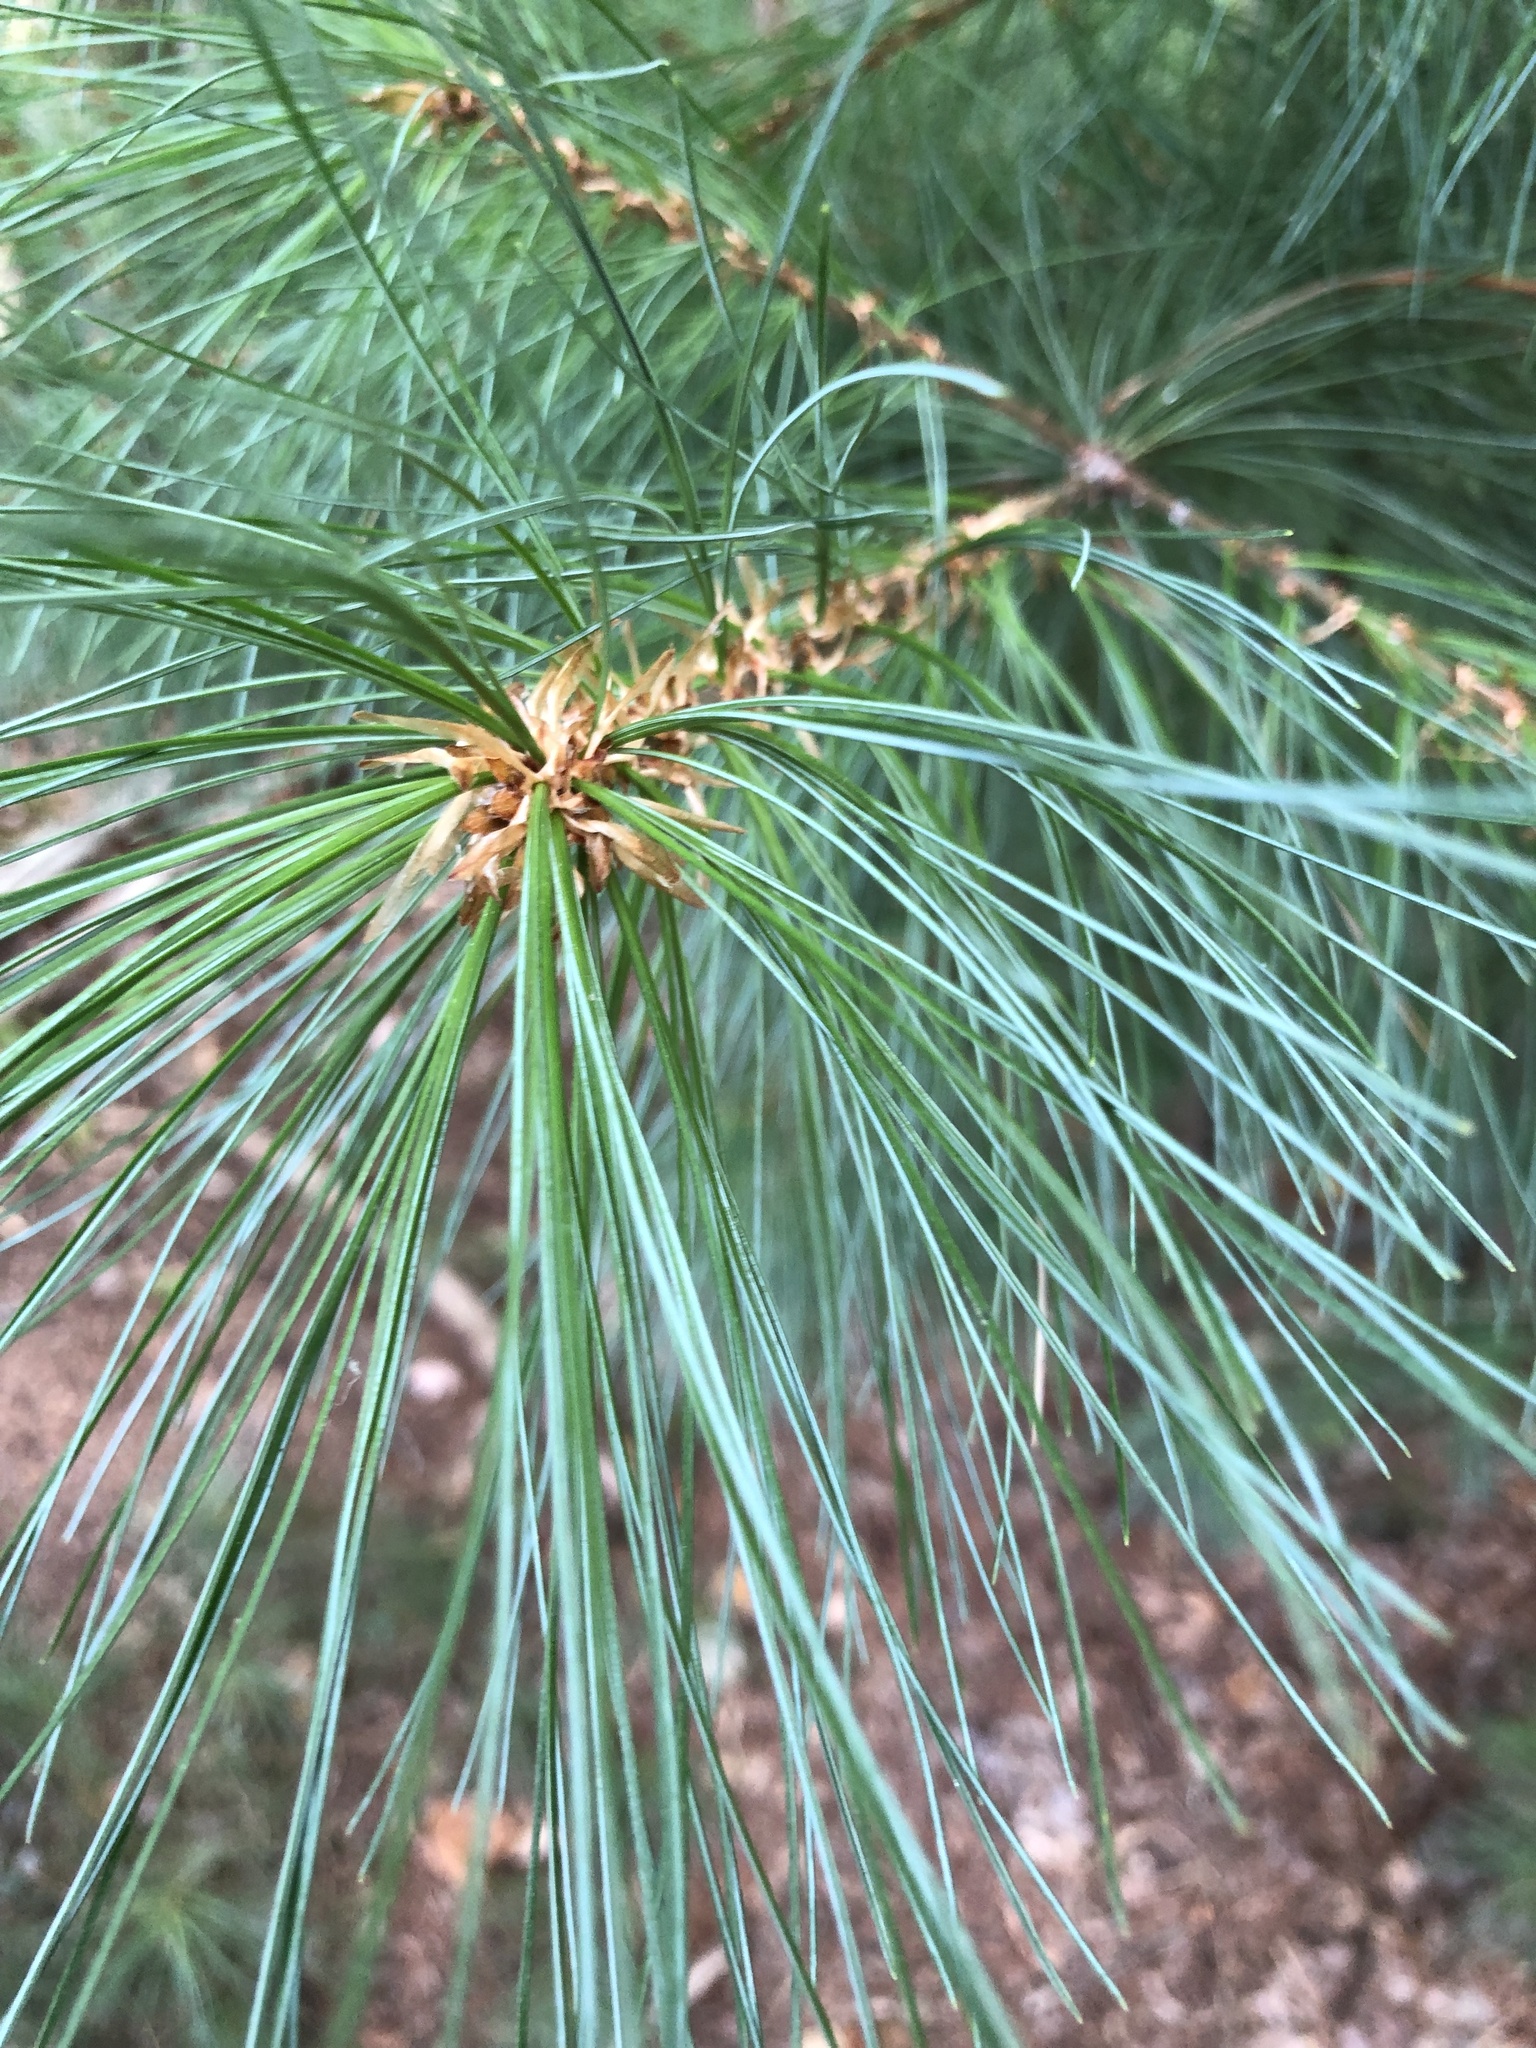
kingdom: Plantae
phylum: Tracheophyta
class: Pinopsida
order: Pinales
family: Pinaceae
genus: Pinus
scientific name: Pinus strobus
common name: Weymouth pine
